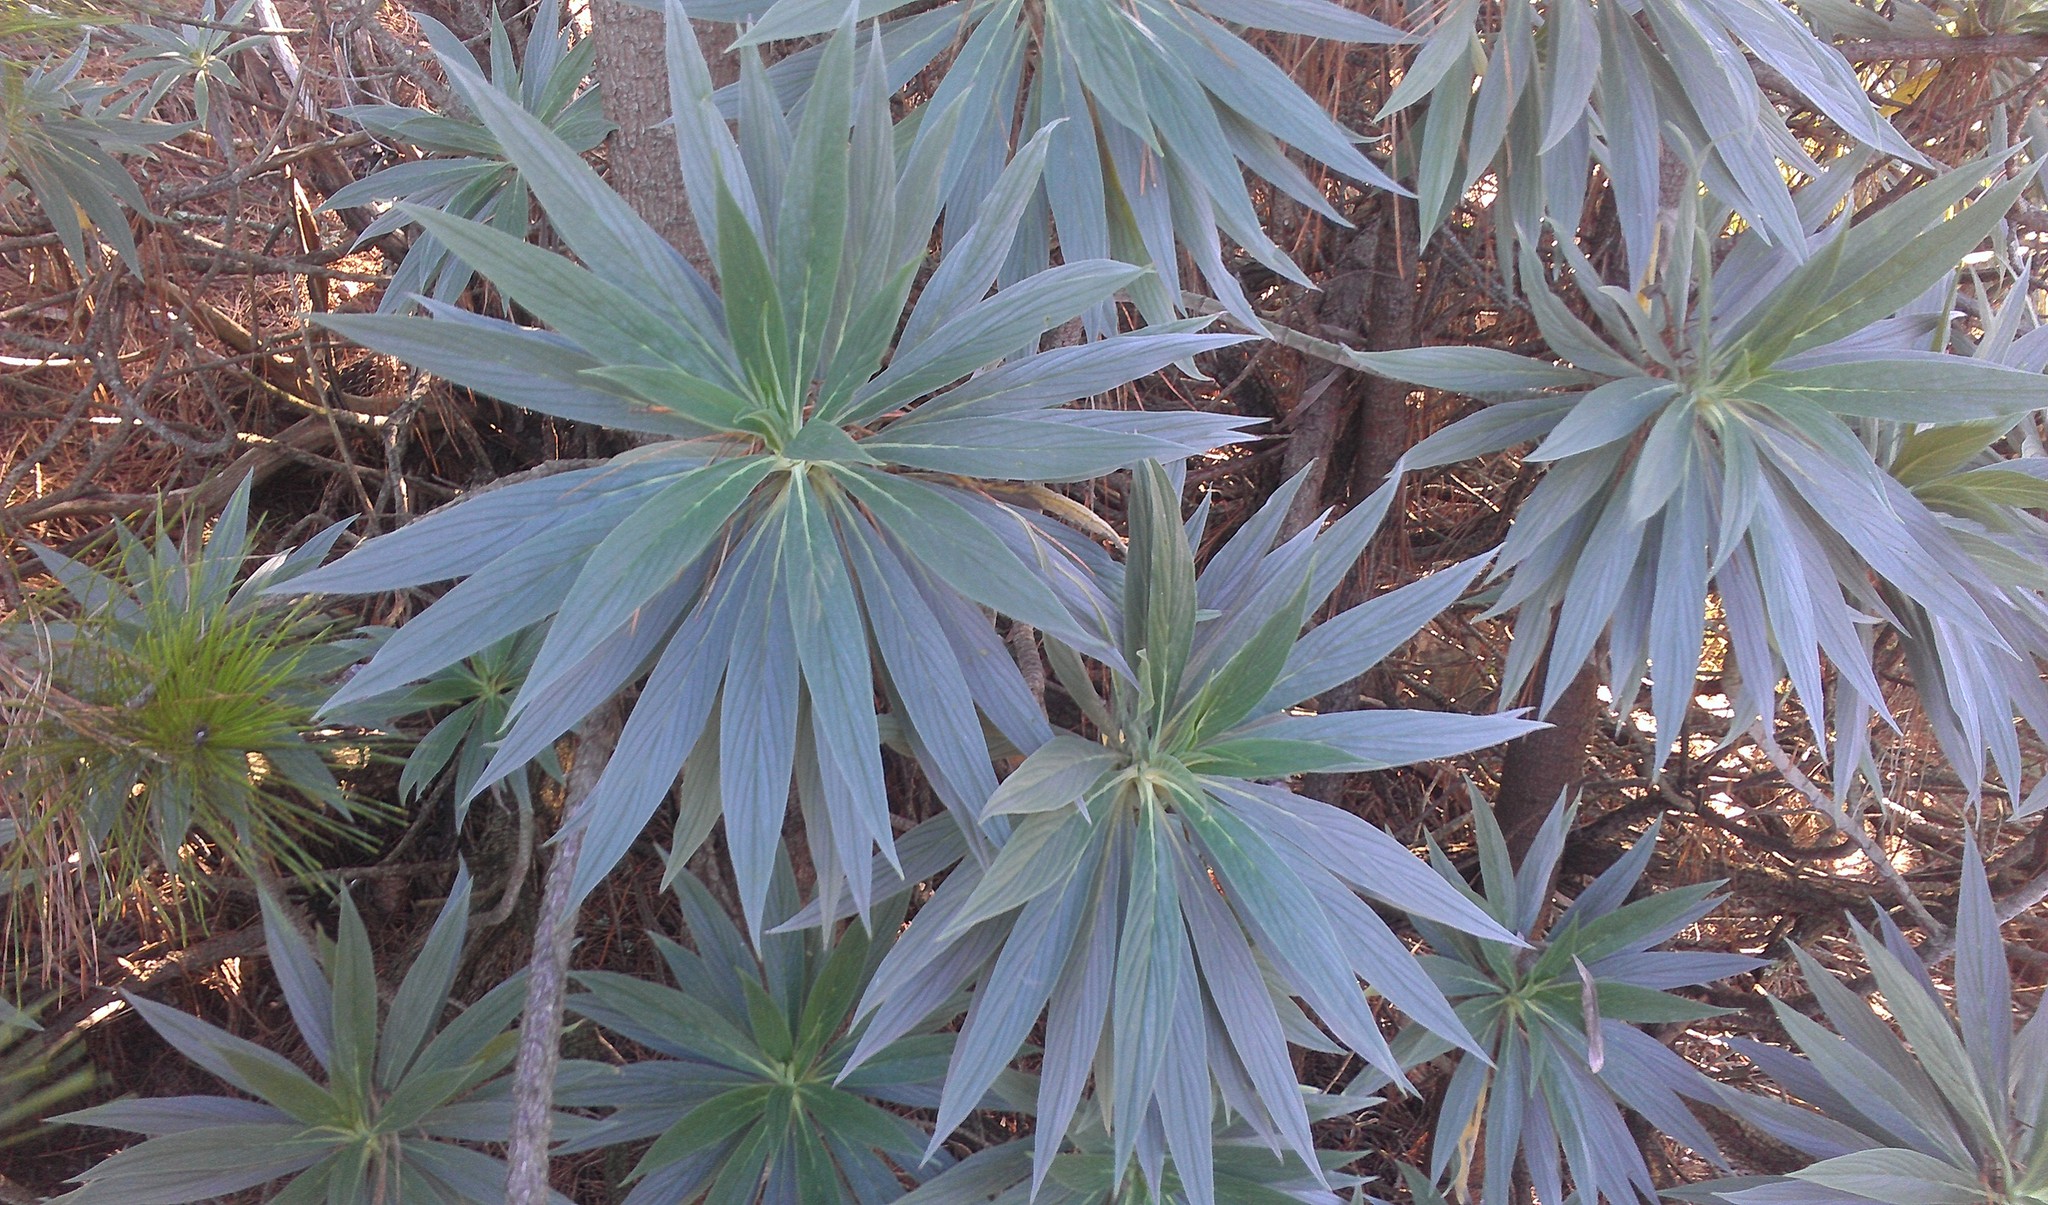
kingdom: Plantae
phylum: Tracheophyta
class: Magnoliopsida
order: Boraginales
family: Boraginaceae
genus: Echium
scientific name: Echium candicans
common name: Pride of madeira
